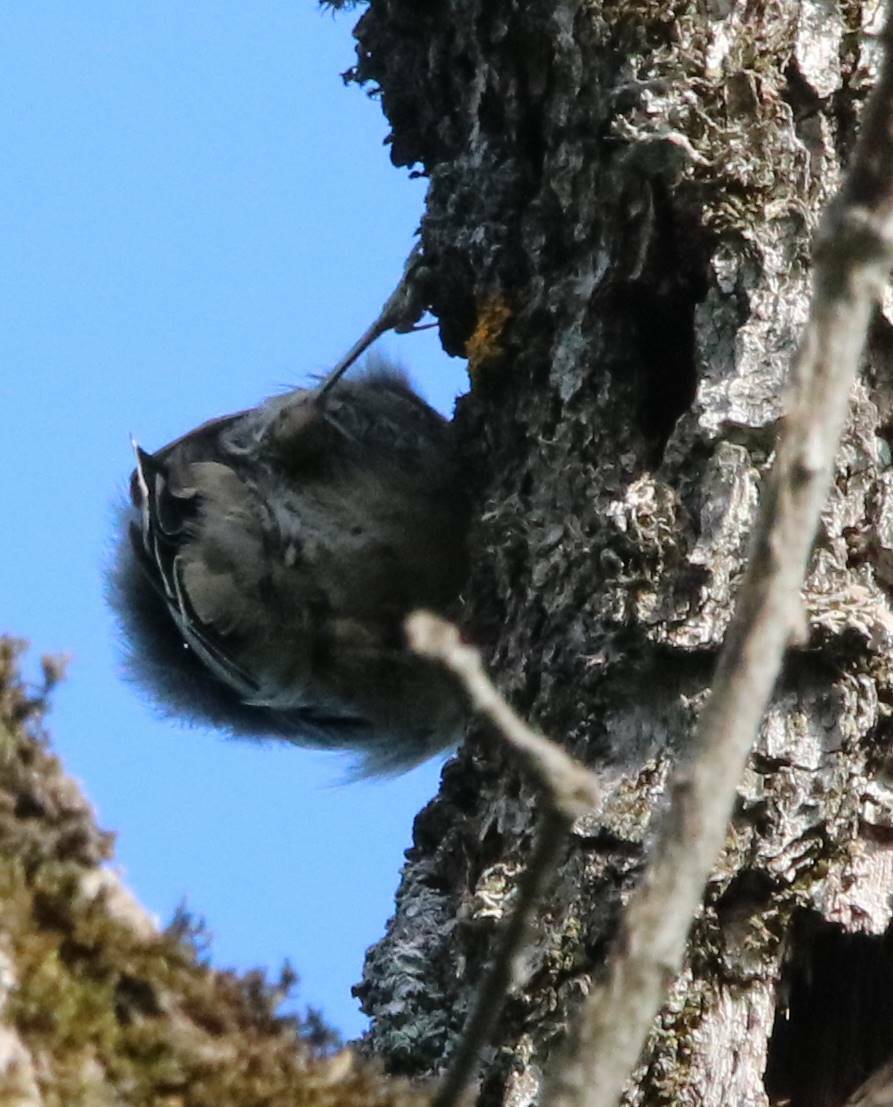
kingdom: Animalia
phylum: Chordata
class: Aves
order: Passeriformes
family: Sittidae
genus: Sitta
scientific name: Sitta ledanti
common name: Algerian nuthatch
